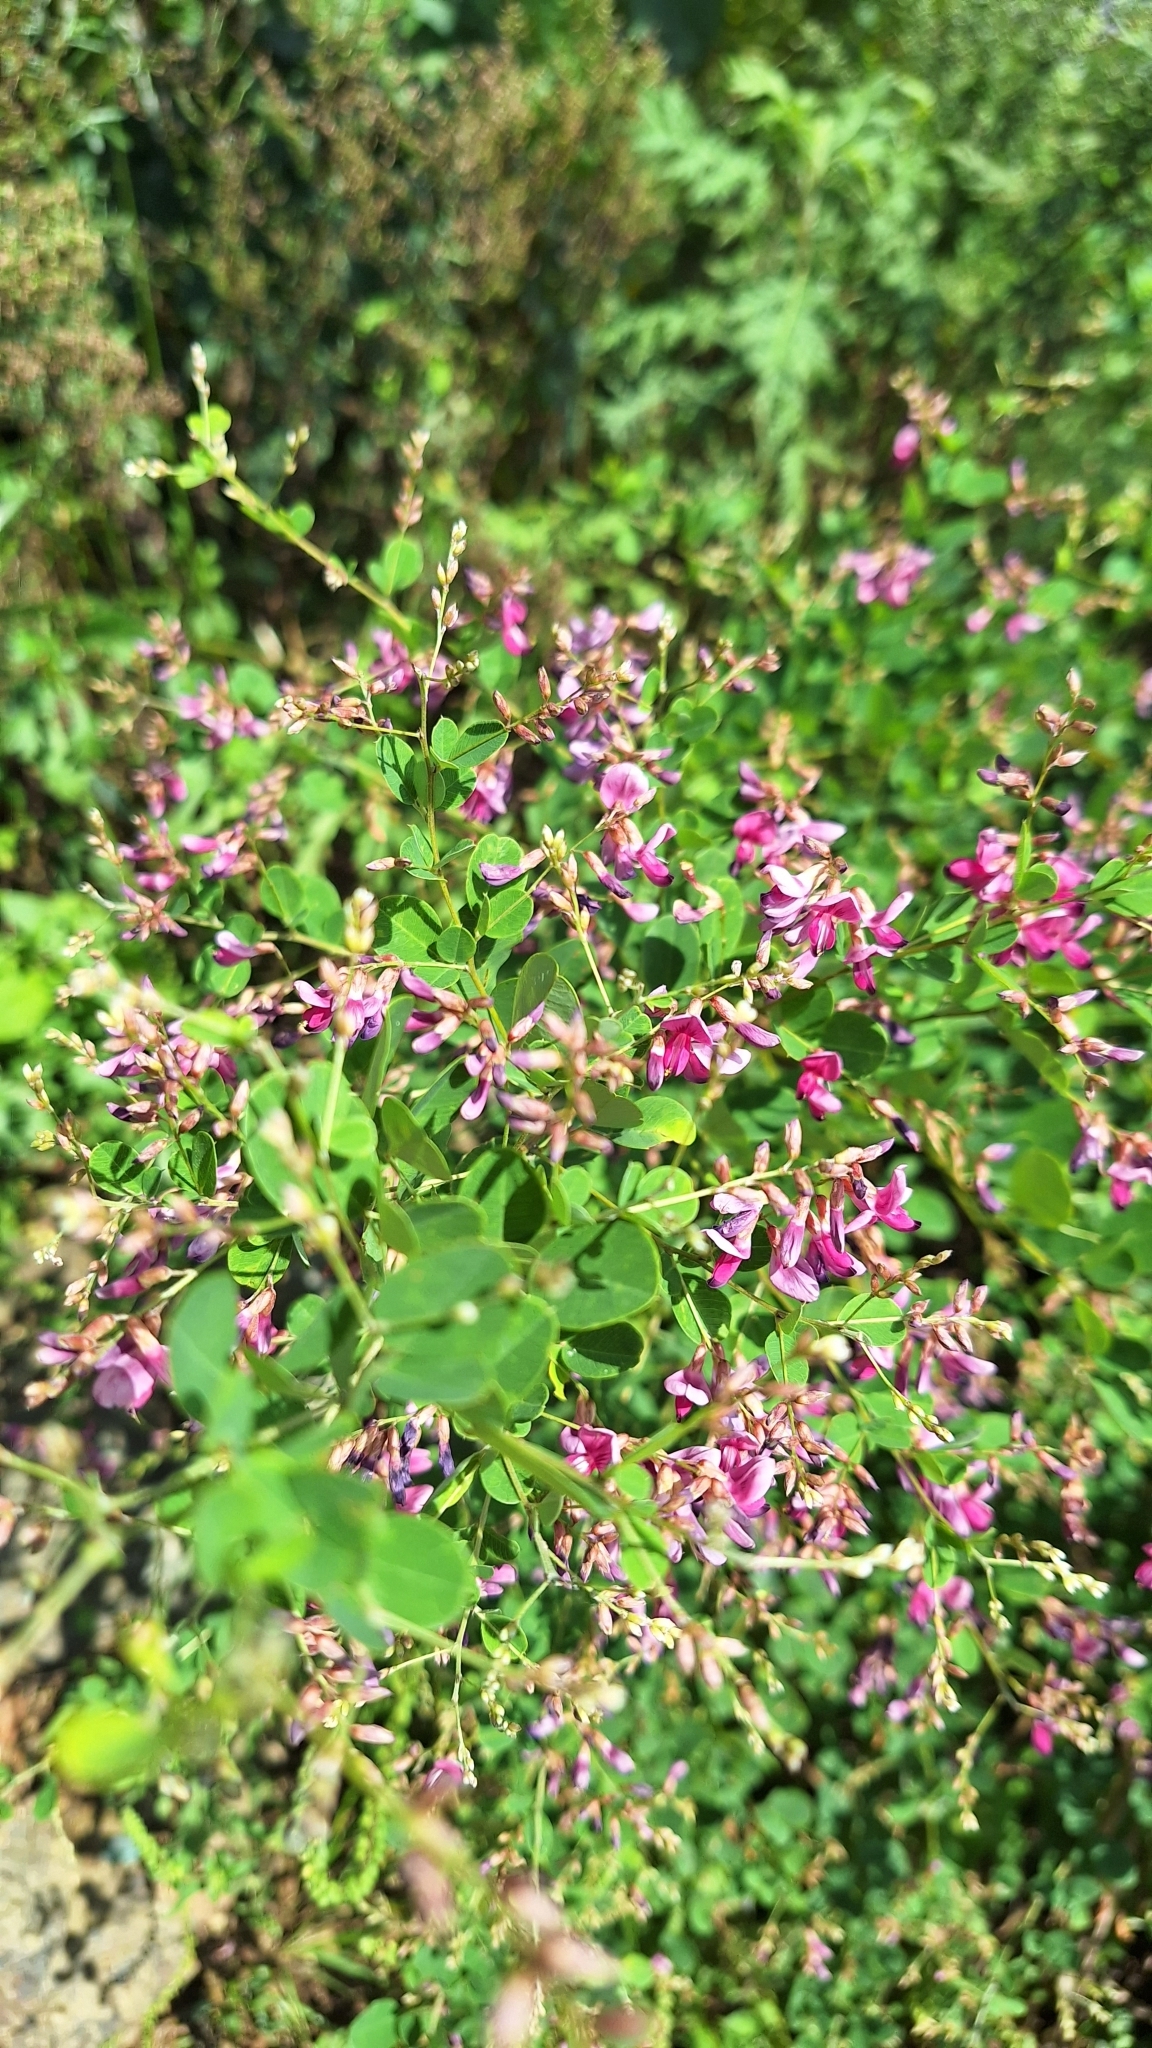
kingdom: Plantae
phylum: Tracheophyta
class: Magnoliopsida
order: Fabales
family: Fabaceae
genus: Lespedeza
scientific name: Lespedeza bicolor
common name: Shrub lespedeza
